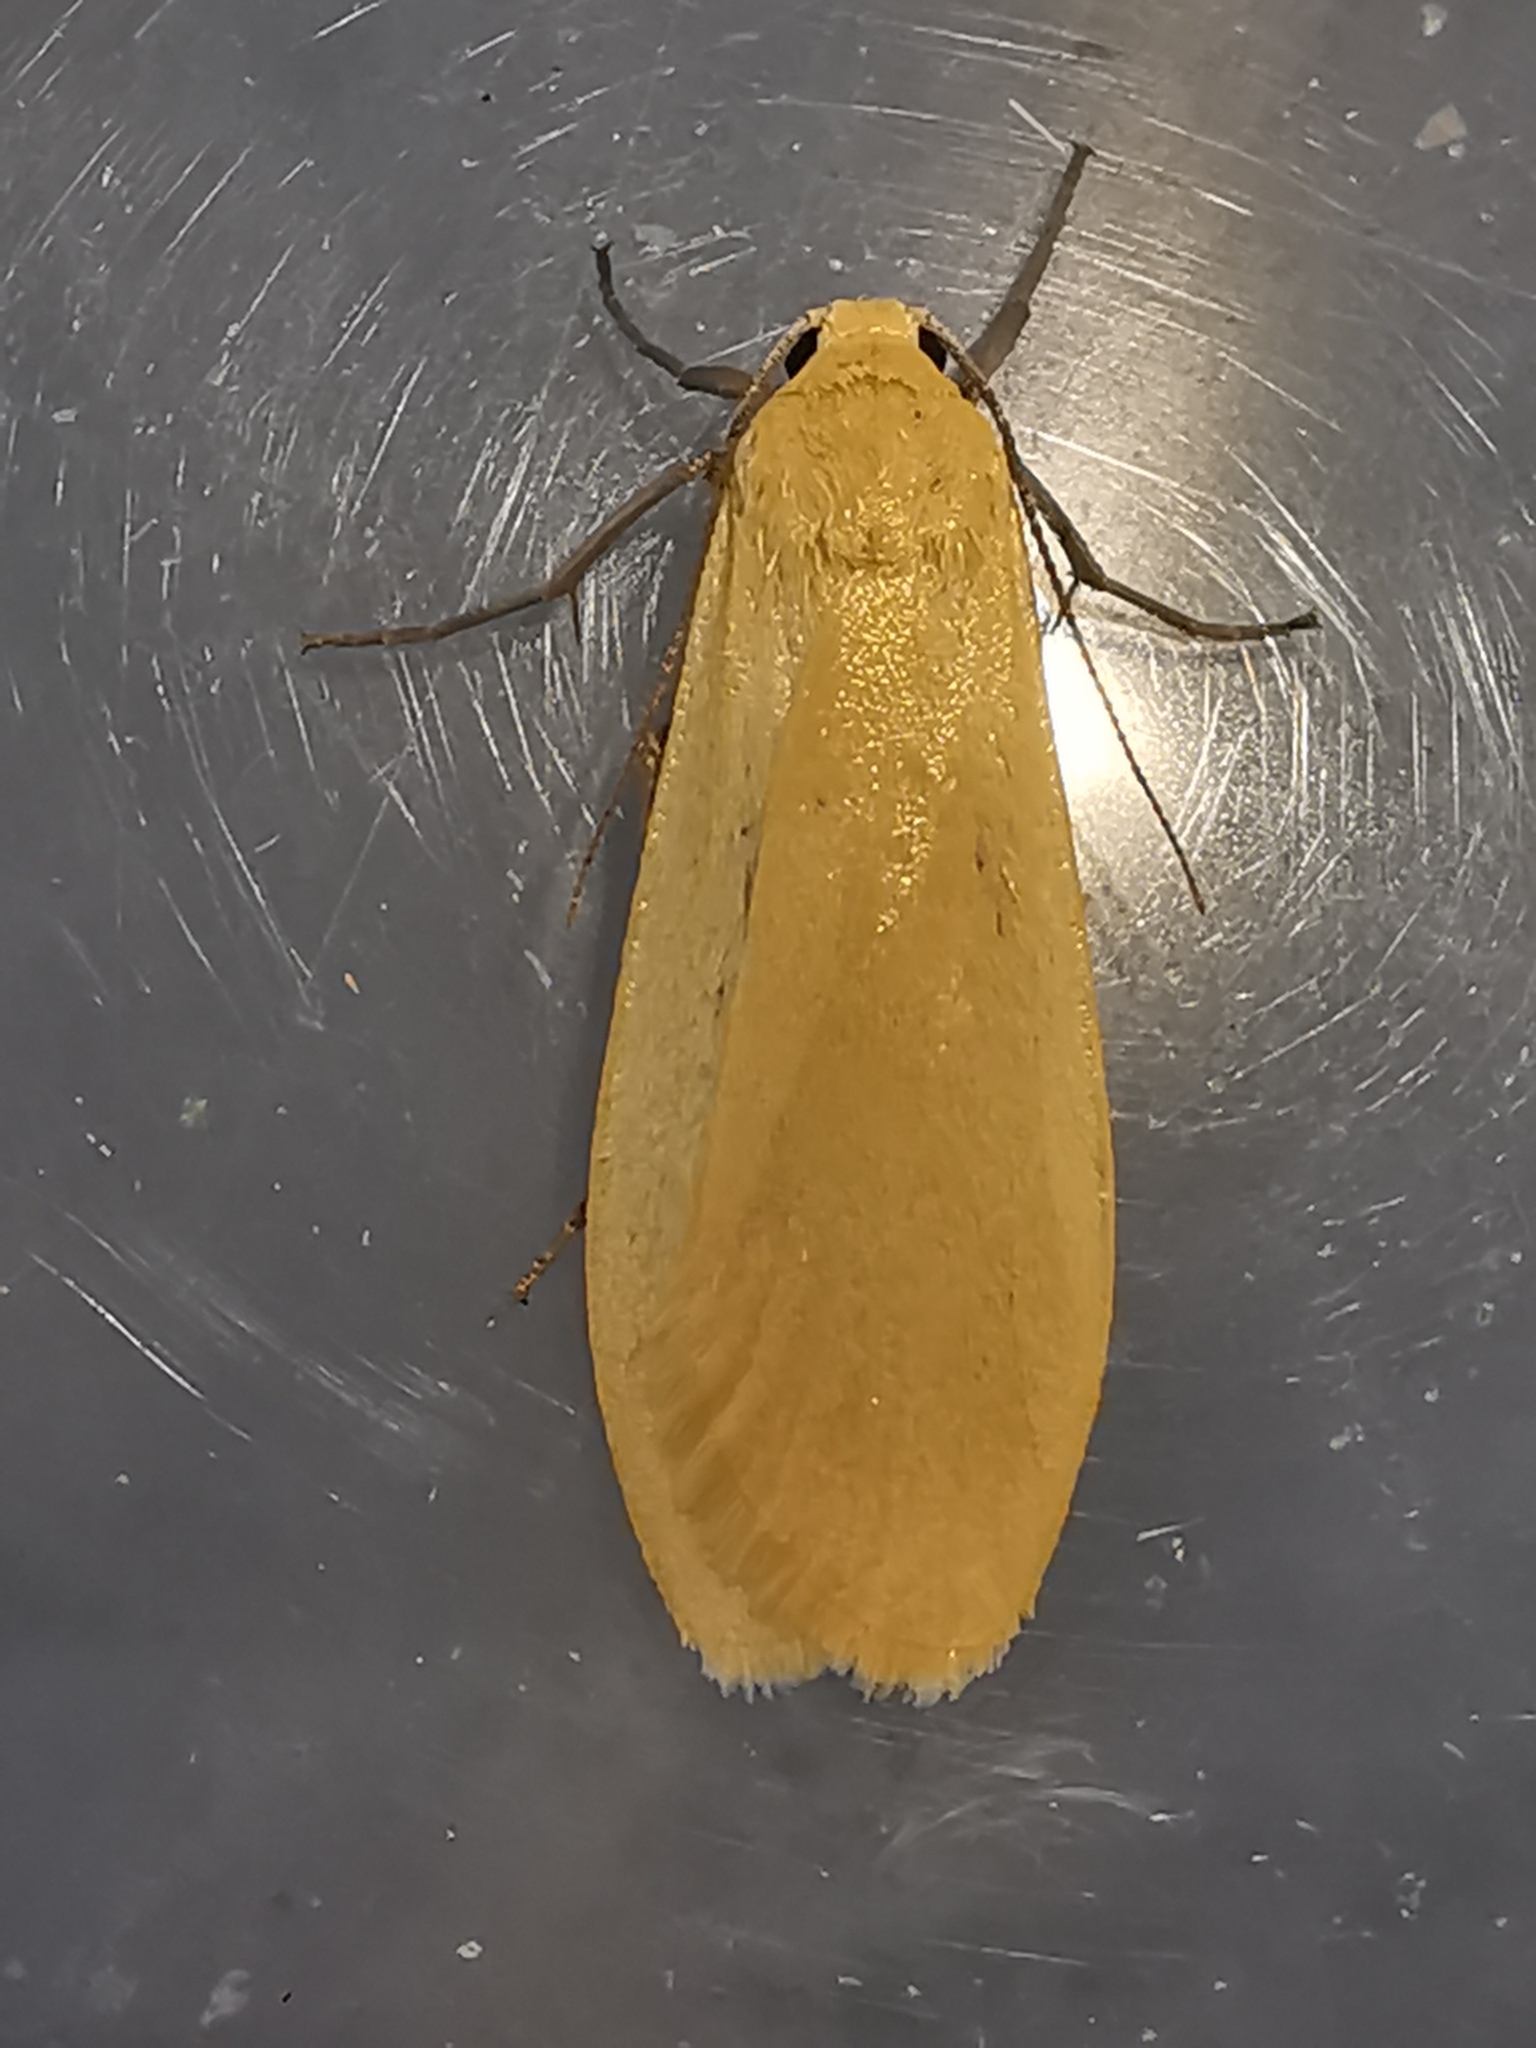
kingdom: Animalia
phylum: Arthropoda
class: Insecta
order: Lepidoptera
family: Erebidae
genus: Wittia
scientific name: Wittia sororcula
